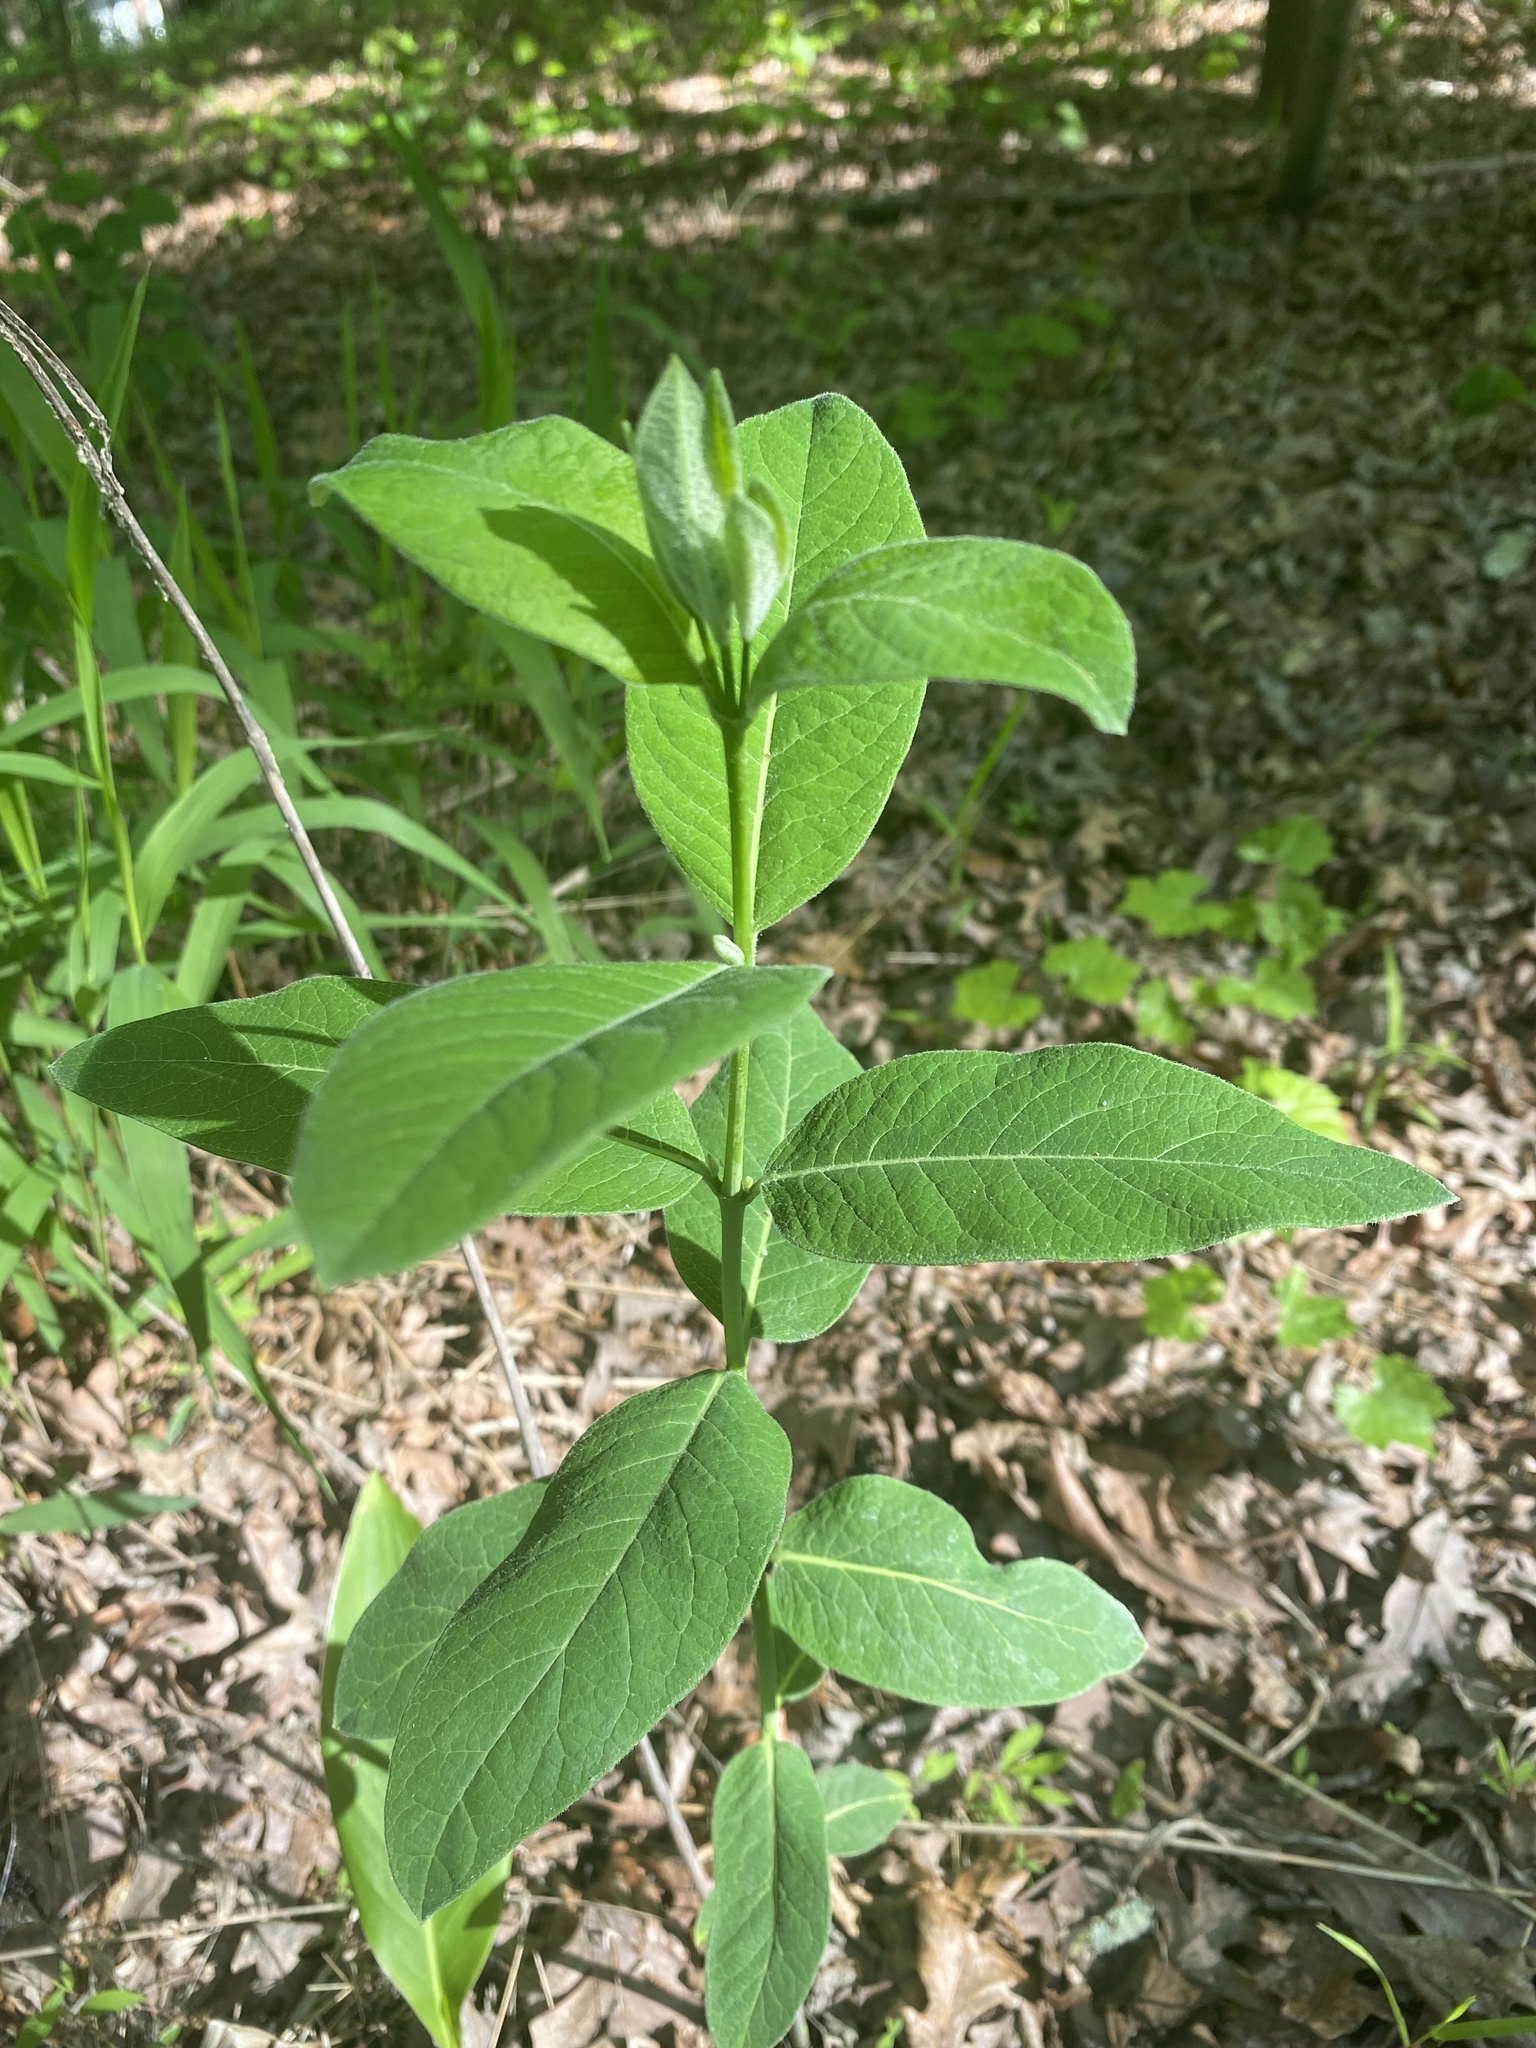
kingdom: Plantae
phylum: Tracheophyta
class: Magnoliopsida
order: Gentianales
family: Apocynaceae
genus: Apocynum
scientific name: Apocynum cannabinum
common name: Hemp dogbane
